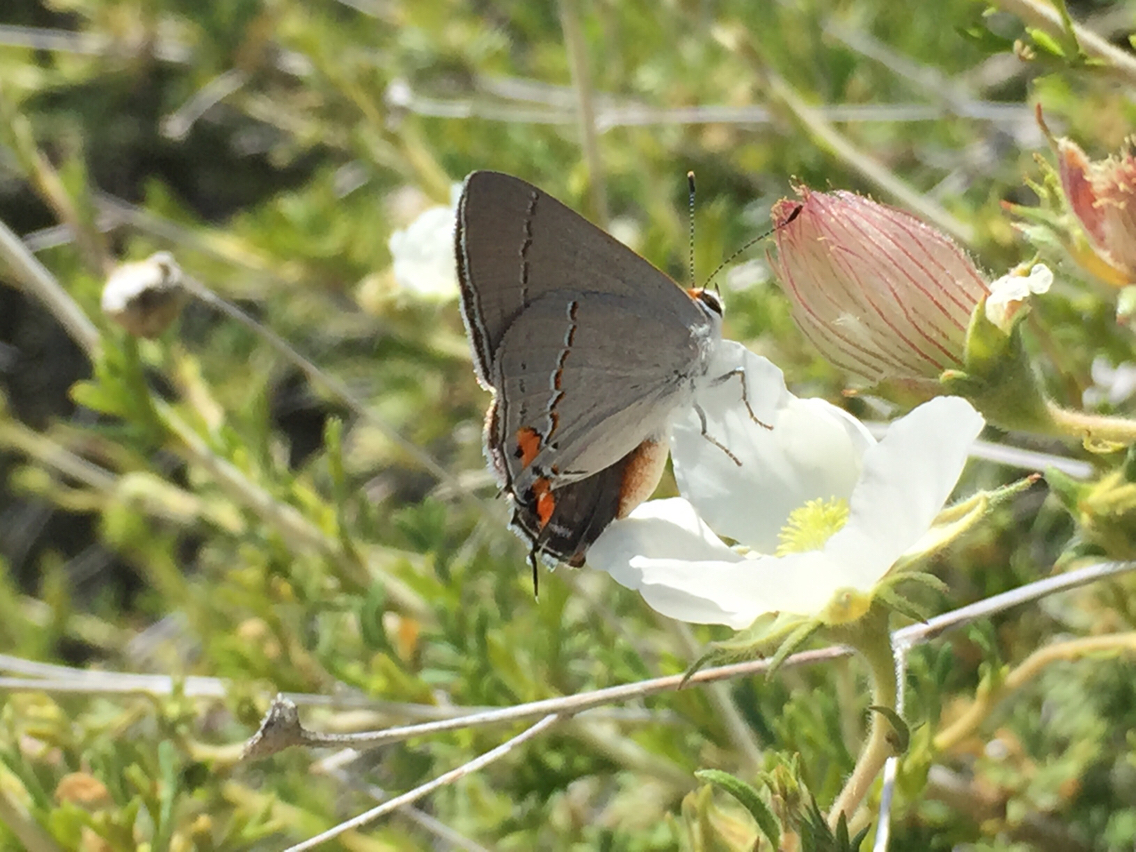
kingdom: Animalia
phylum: Arthropoda
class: Insecta
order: Lepidoptera
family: Lycaenidae
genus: Strymon
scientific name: Strymon melinus
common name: Gray hairstreak
